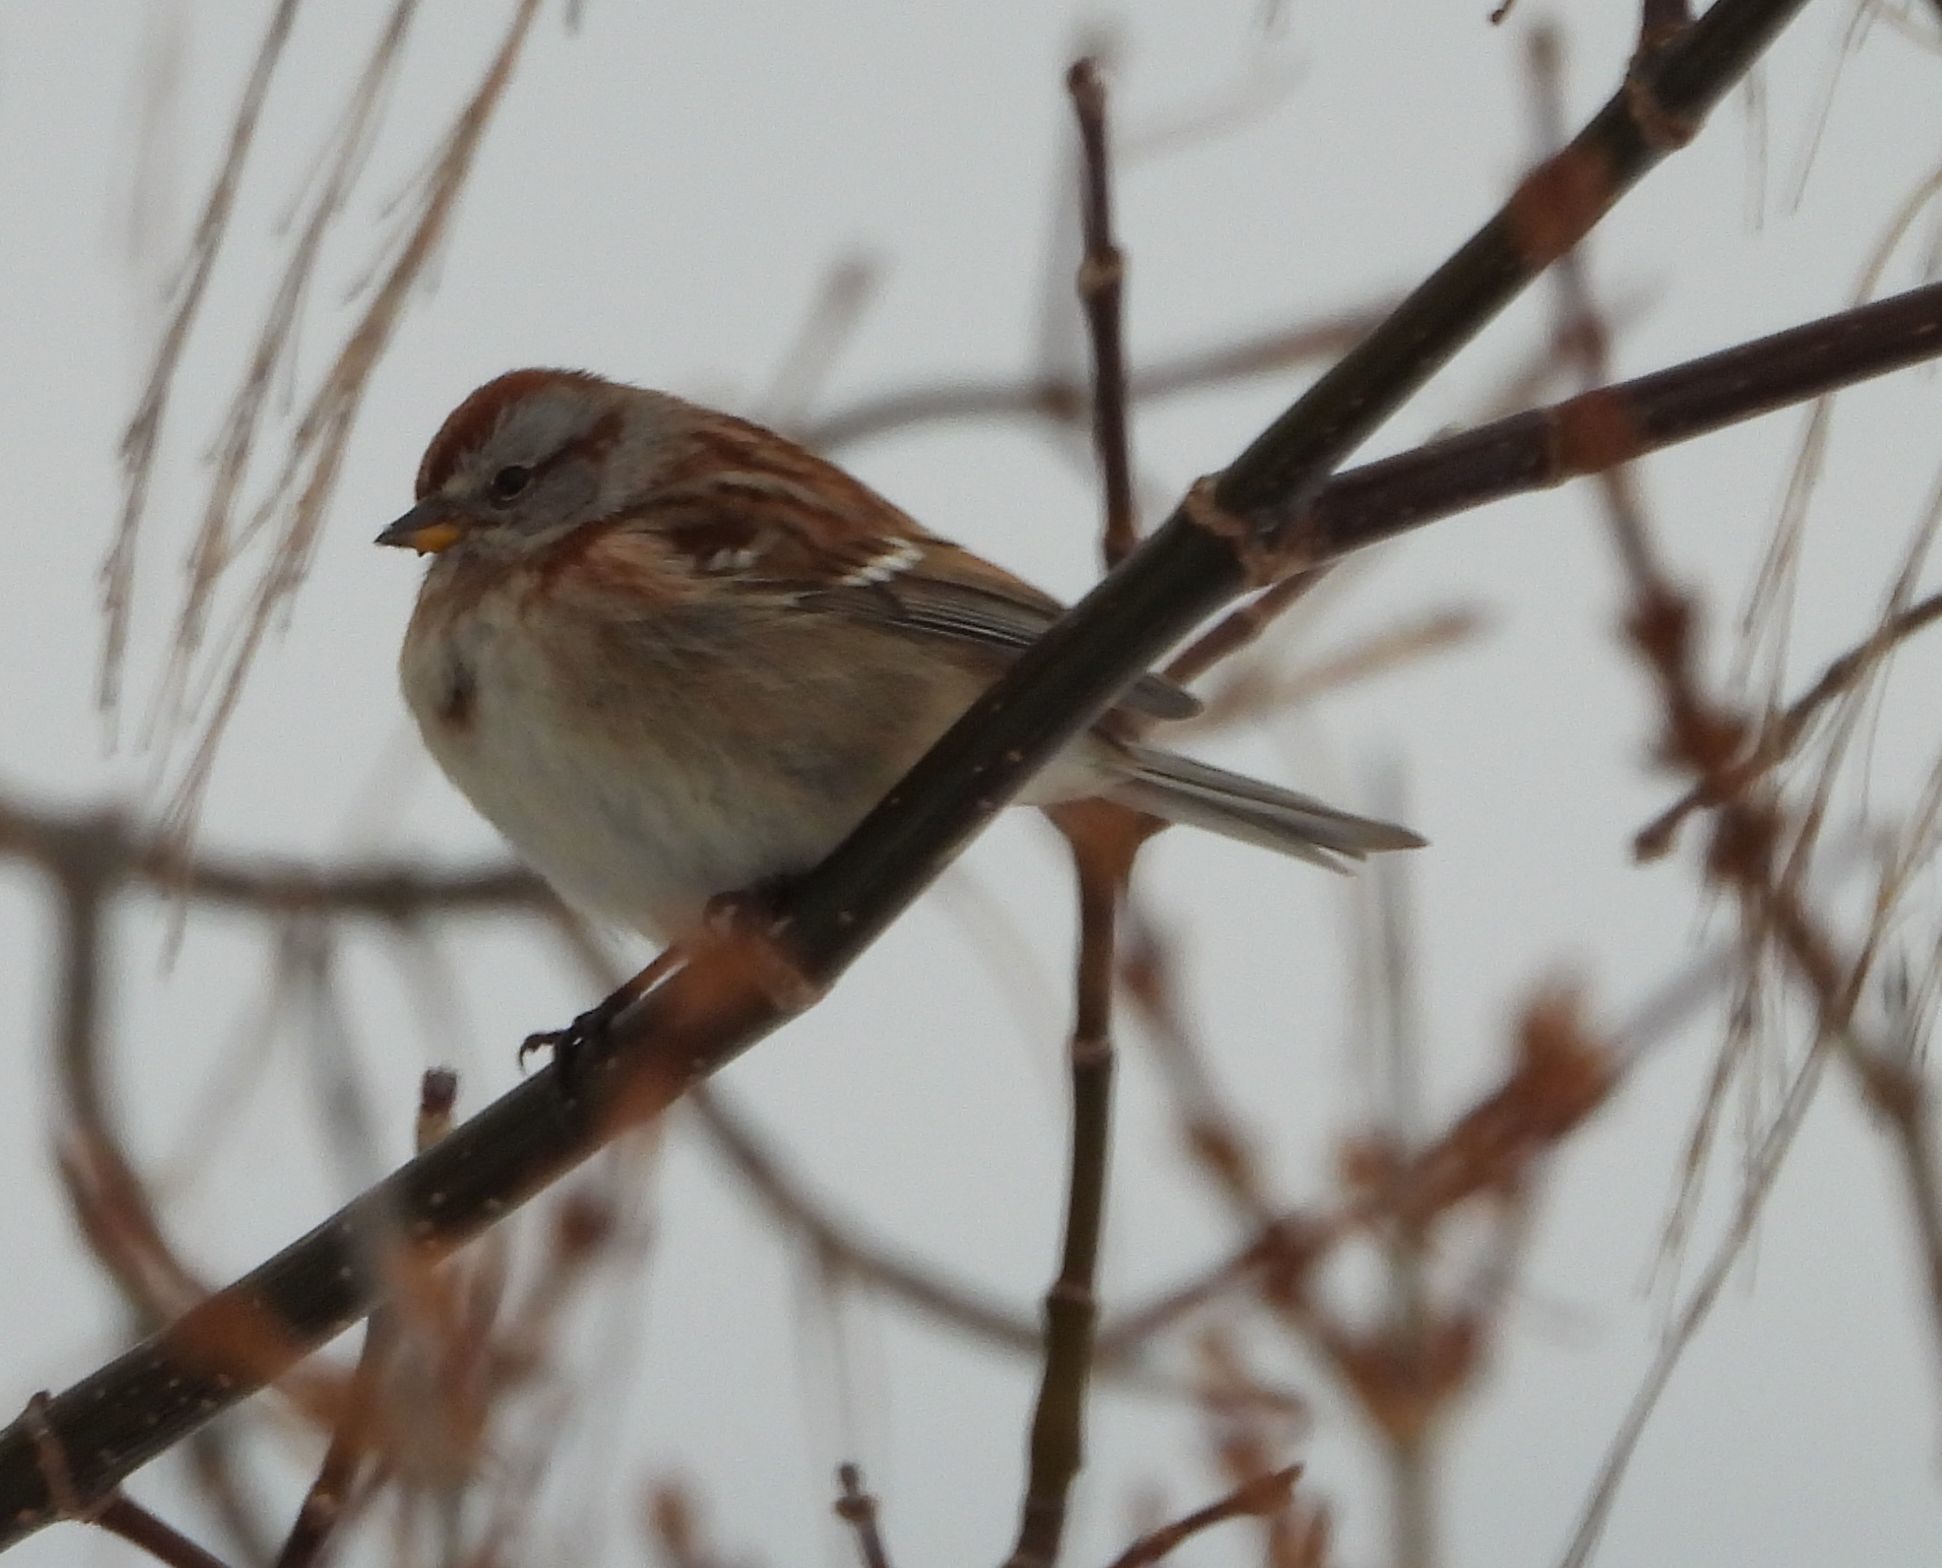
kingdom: Animalia
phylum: Chordata
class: Aves
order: Passeriformes
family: Passerellidae
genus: Spizelloides
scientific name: Spizelloides arborea
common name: American tree sparrow
